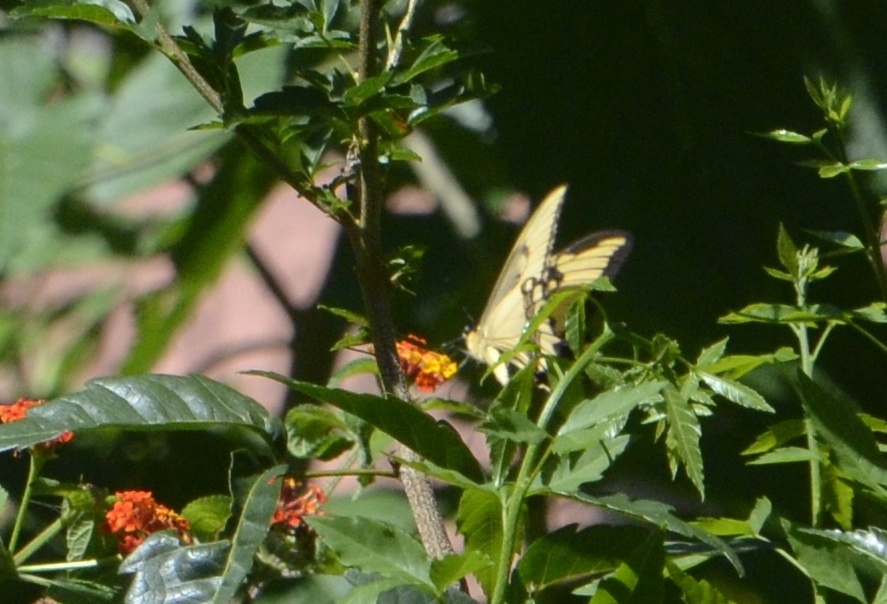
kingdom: Animalia
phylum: Arthropoda
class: Insecta
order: Lepidoptera
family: Papilionidae
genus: Papilio
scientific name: Papilio astyalus
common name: Astyalus swallowtail
